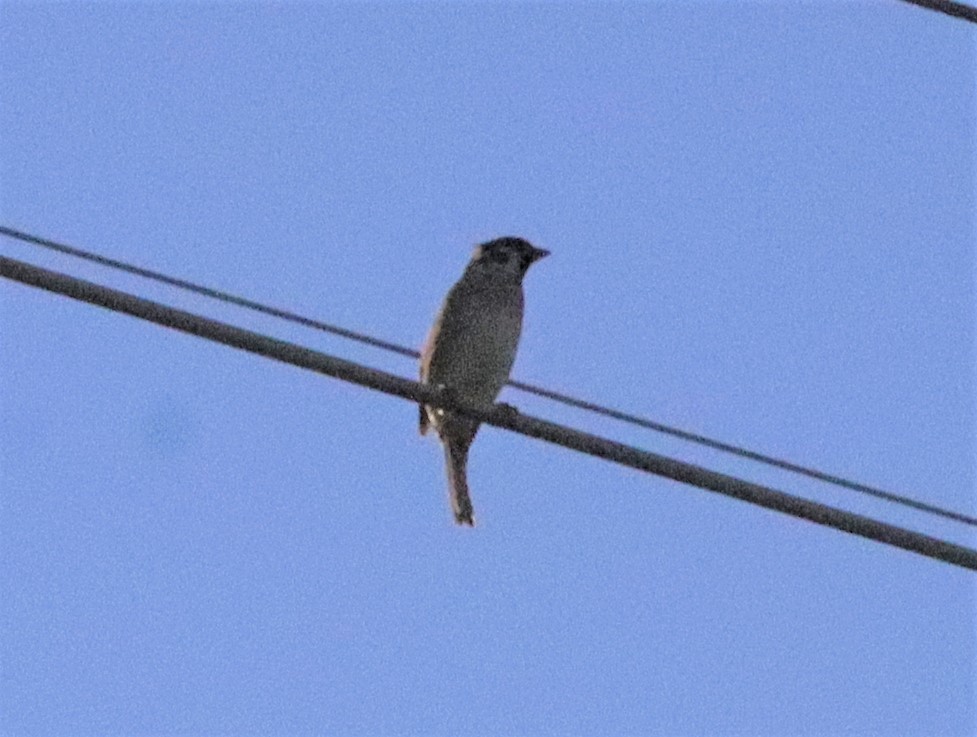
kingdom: Animalia
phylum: Chordata
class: Aves
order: Passeriformes
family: Passeridae
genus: Passer
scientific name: Passer montanus
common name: Eurasian tree sparrow
